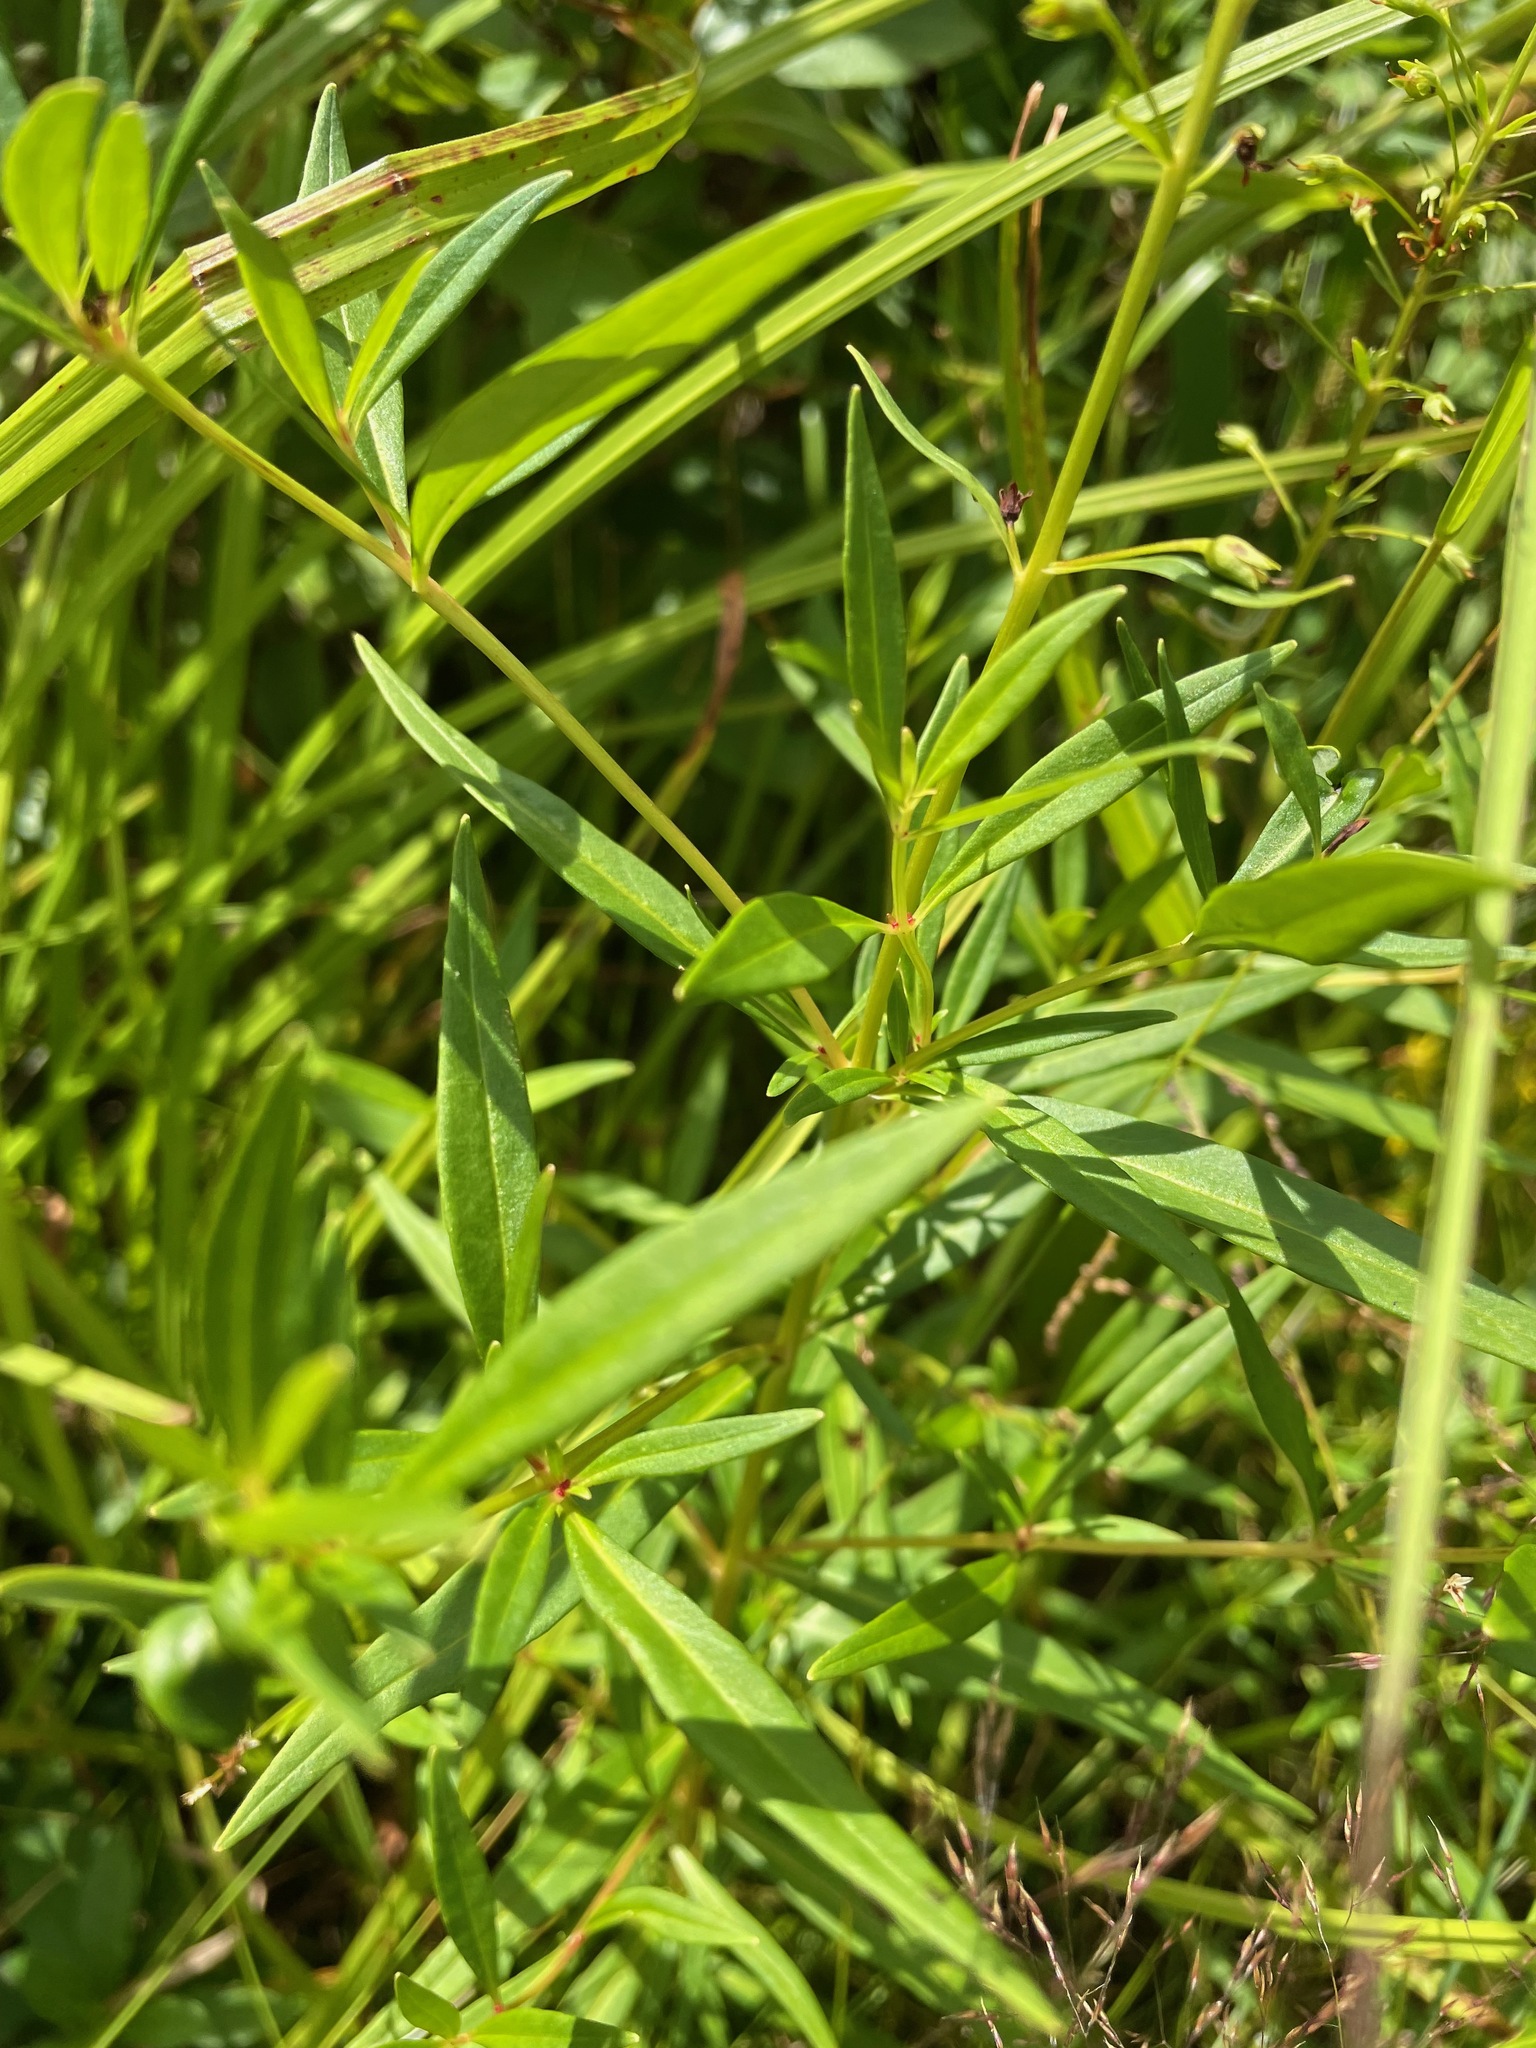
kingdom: Plantae
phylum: Tracheophyta
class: Magnoliopsida
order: Ericales
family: Primulaceae
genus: Lysimachia
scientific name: Lysimachia terrestris
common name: Lake loosestrife
